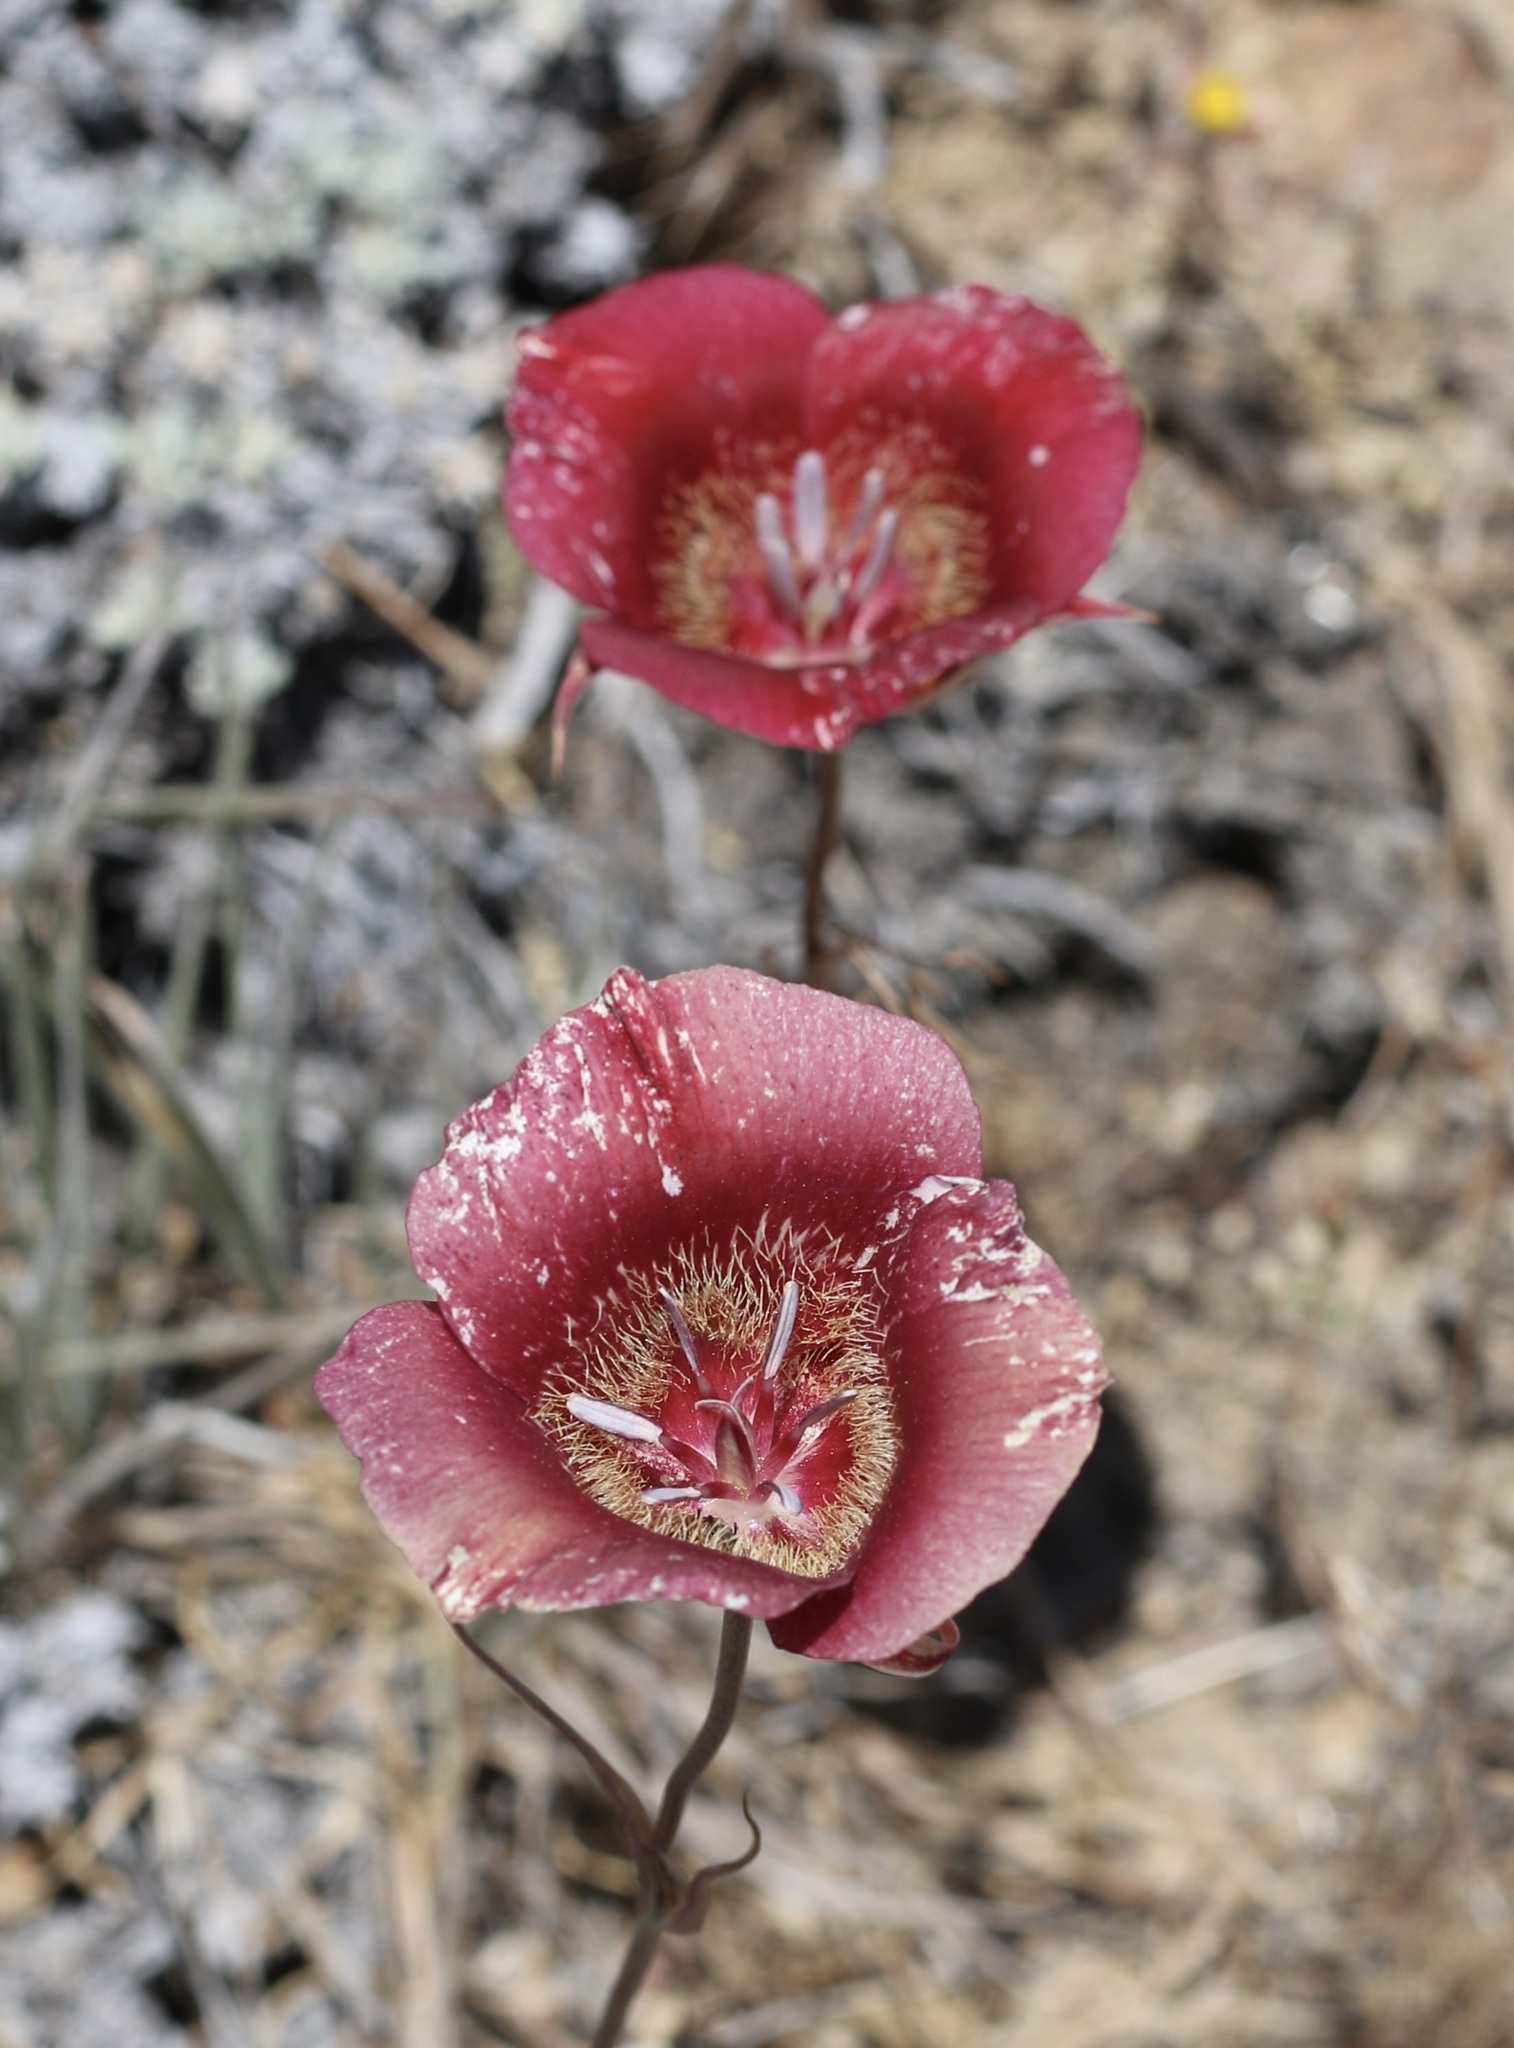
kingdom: Plantae
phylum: Tracheophyta
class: Liliopsida
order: Liliales
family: Liliaceae
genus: Calochortus
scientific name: Calochortus venustus
